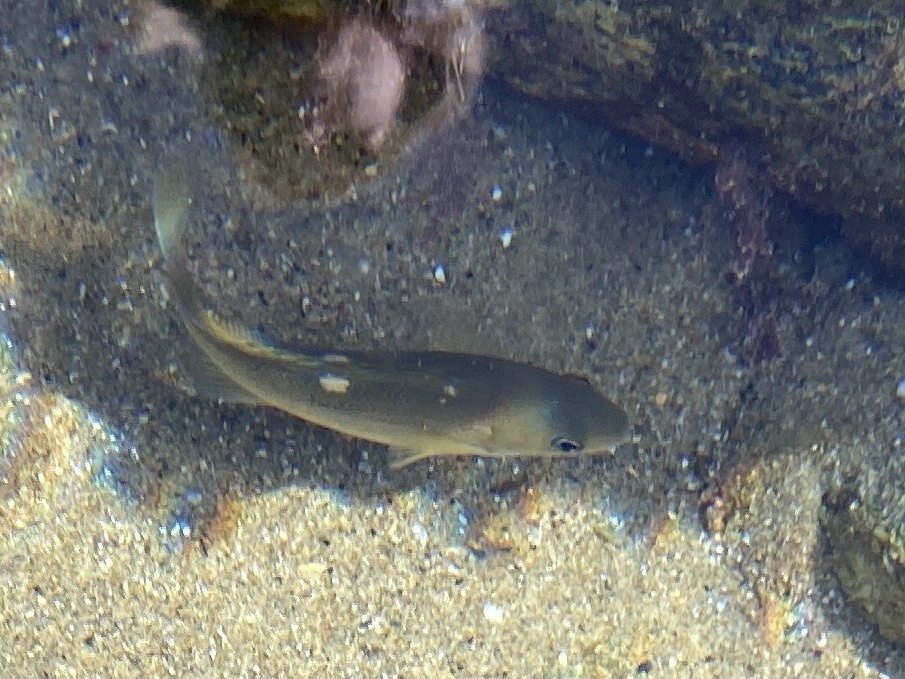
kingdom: Animalia
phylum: Chordata
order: Perciformes
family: Kyphosidae
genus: Girella
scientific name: Girella nigricans
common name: Opaleye
